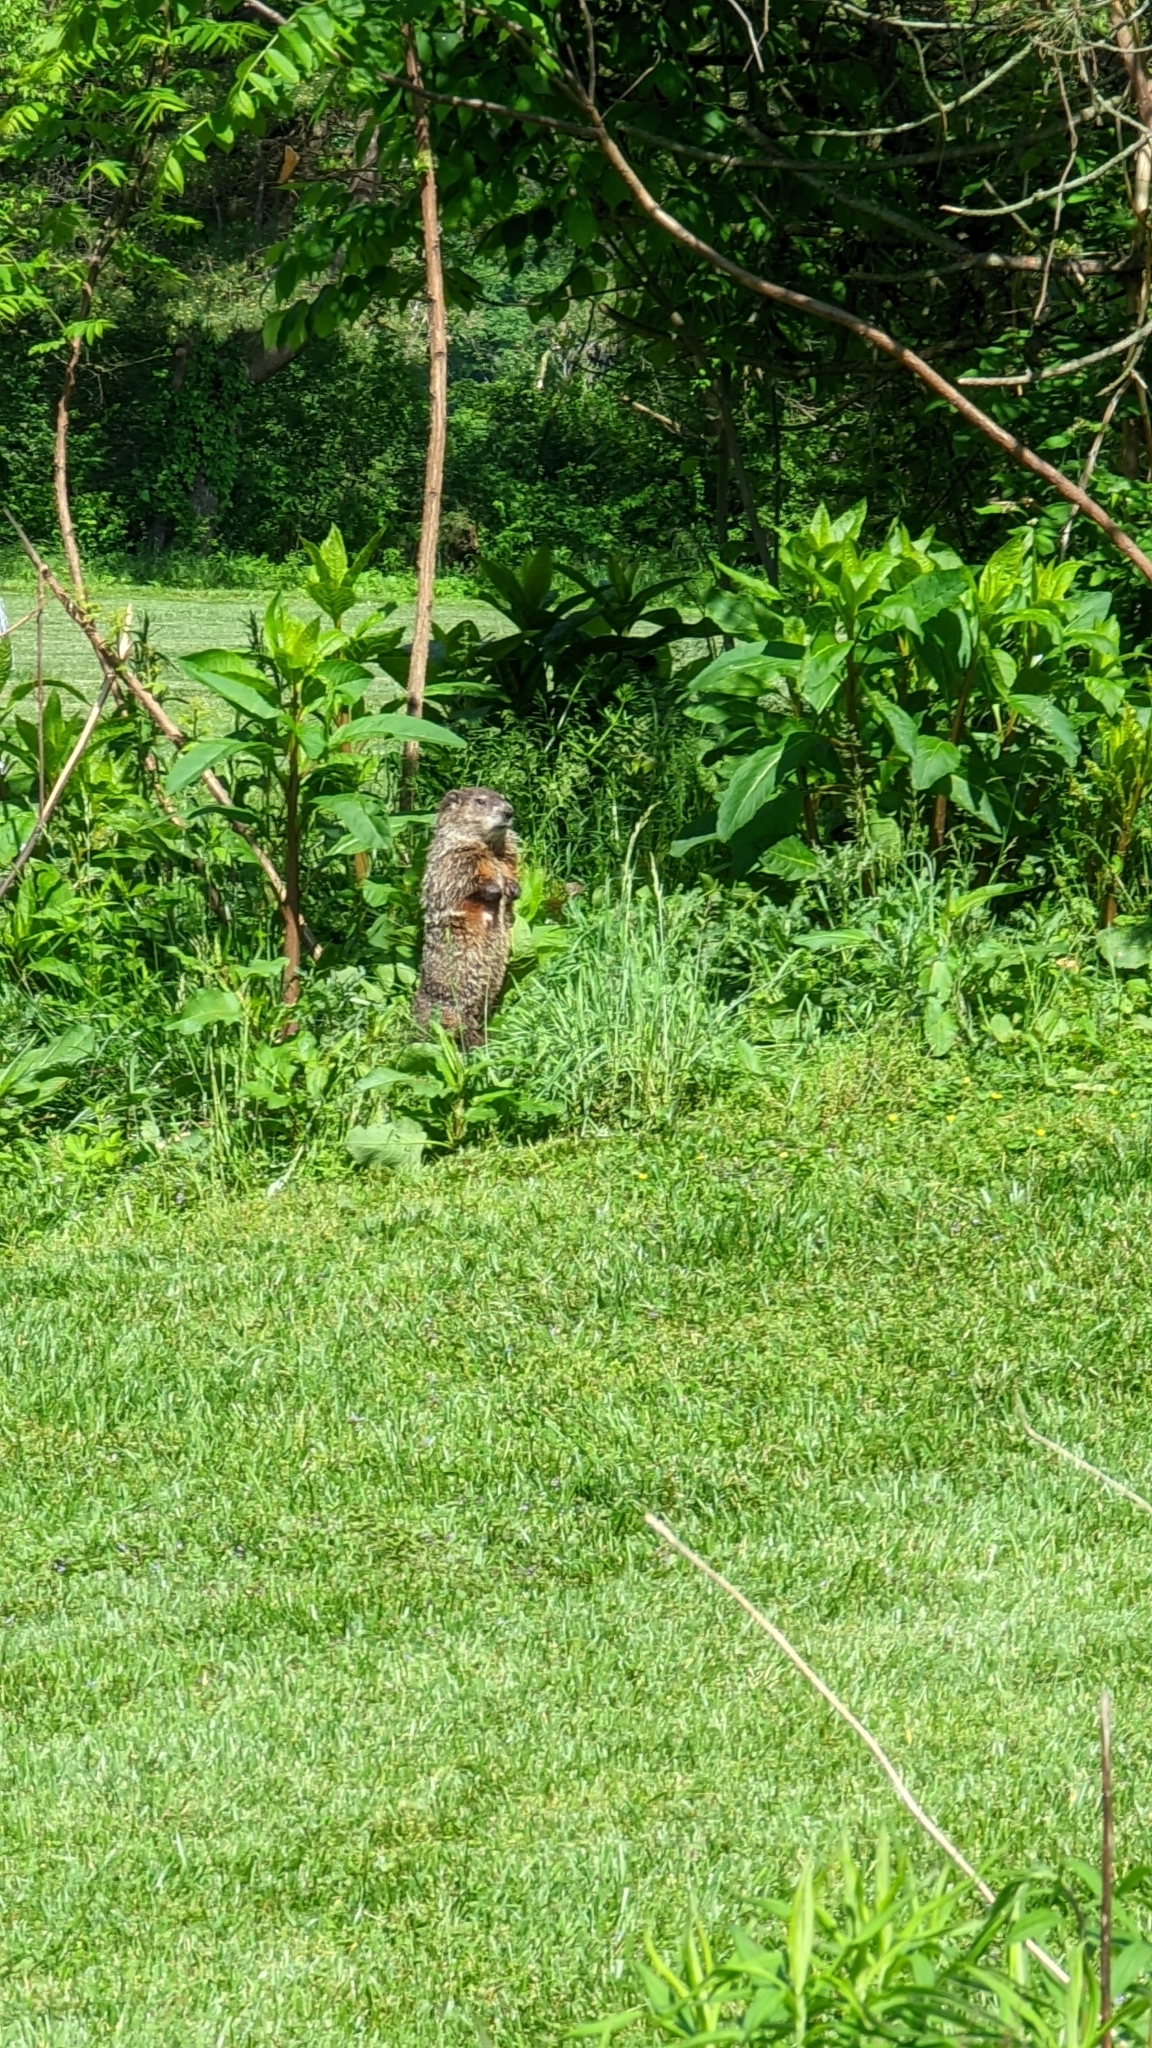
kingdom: Animalia
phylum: Chordata
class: Mammalia
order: Rodentia
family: Sciuridae
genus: Marmota
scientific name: Marmota monax
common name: Groundhog
